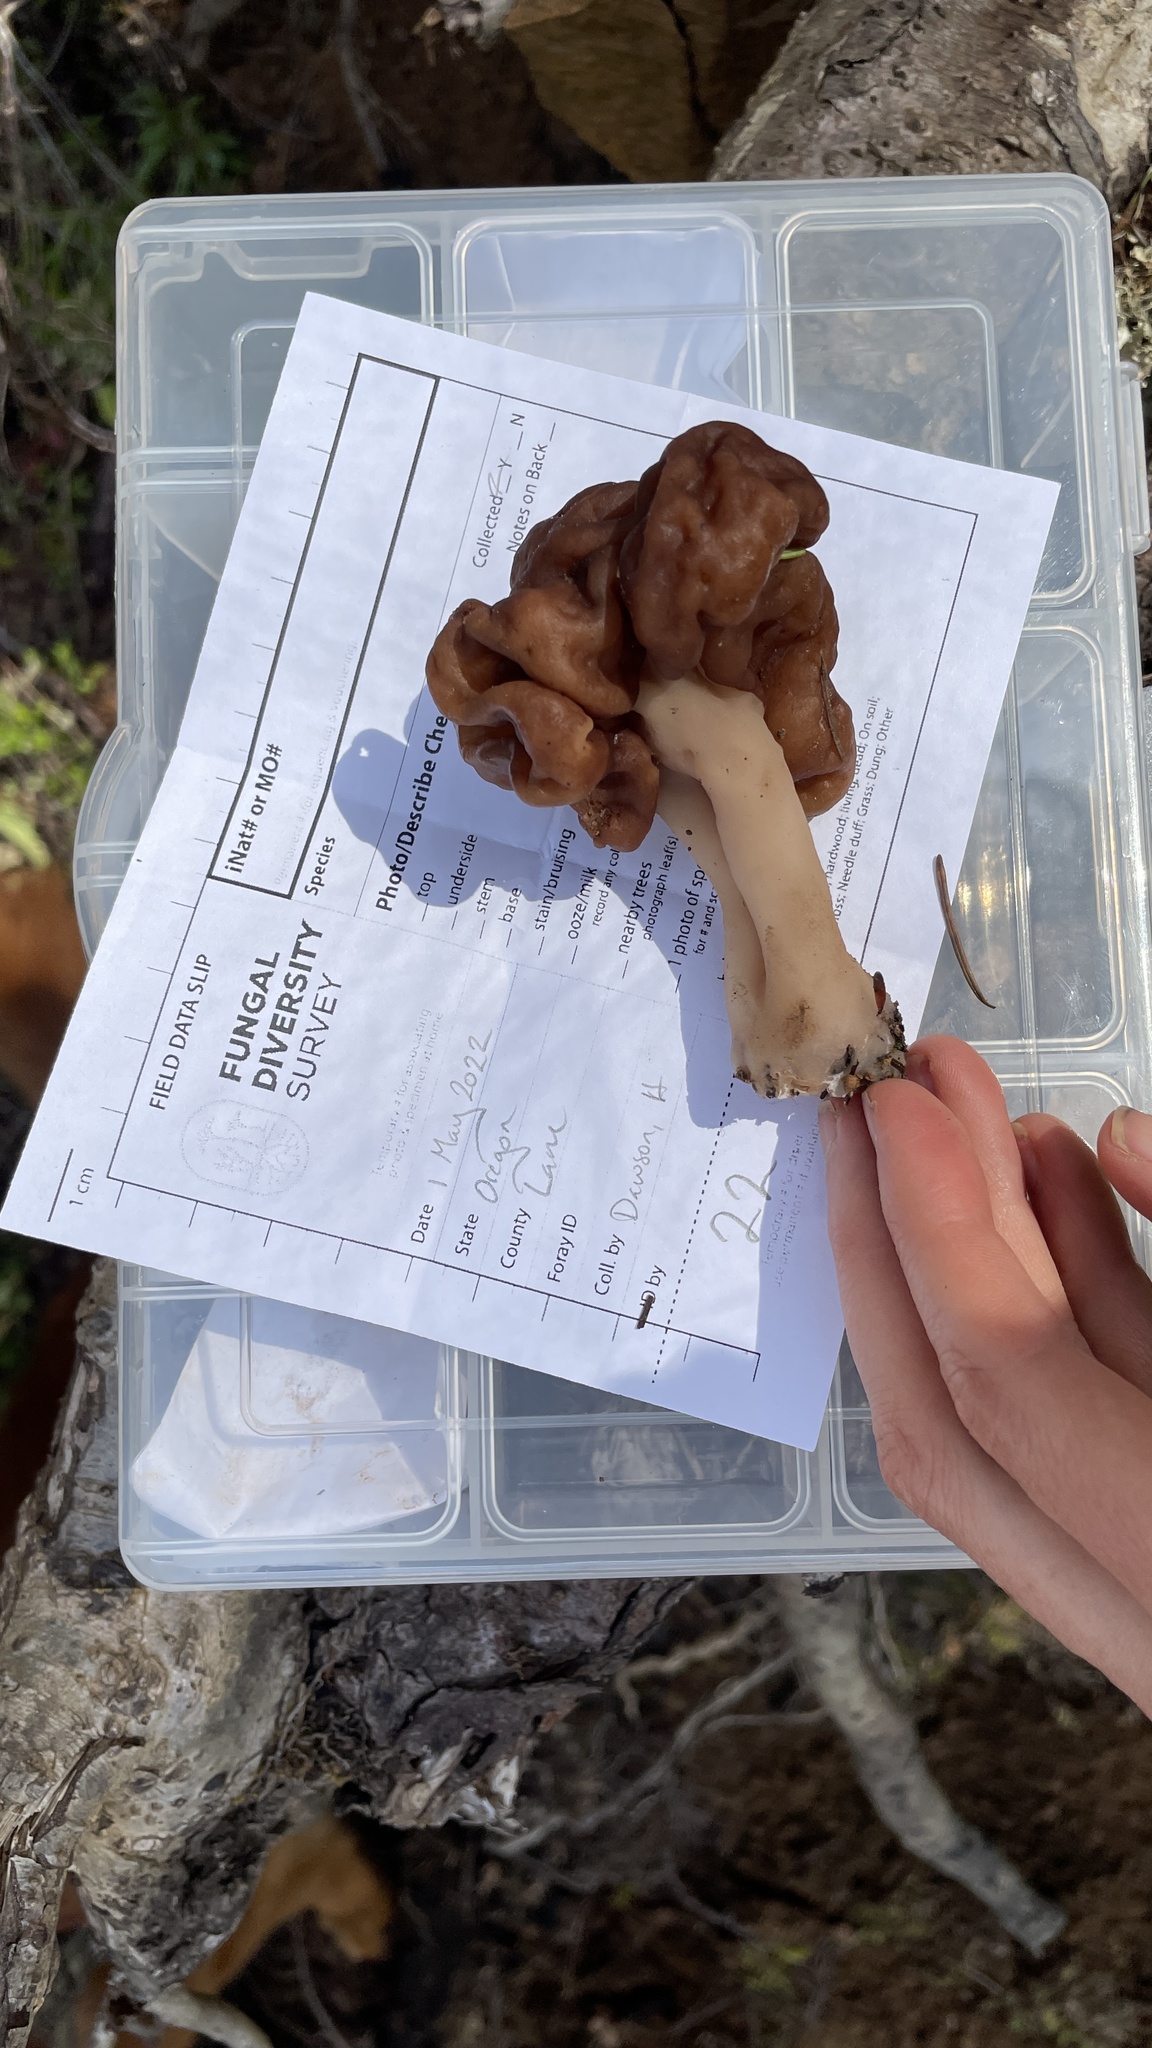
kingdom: Fungi
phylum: Ascomycota
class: Pezizomycetes
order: Pezizales
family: Discinaceae
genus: Gyromitra
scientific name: Gyromitra esculenta
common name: False morel
